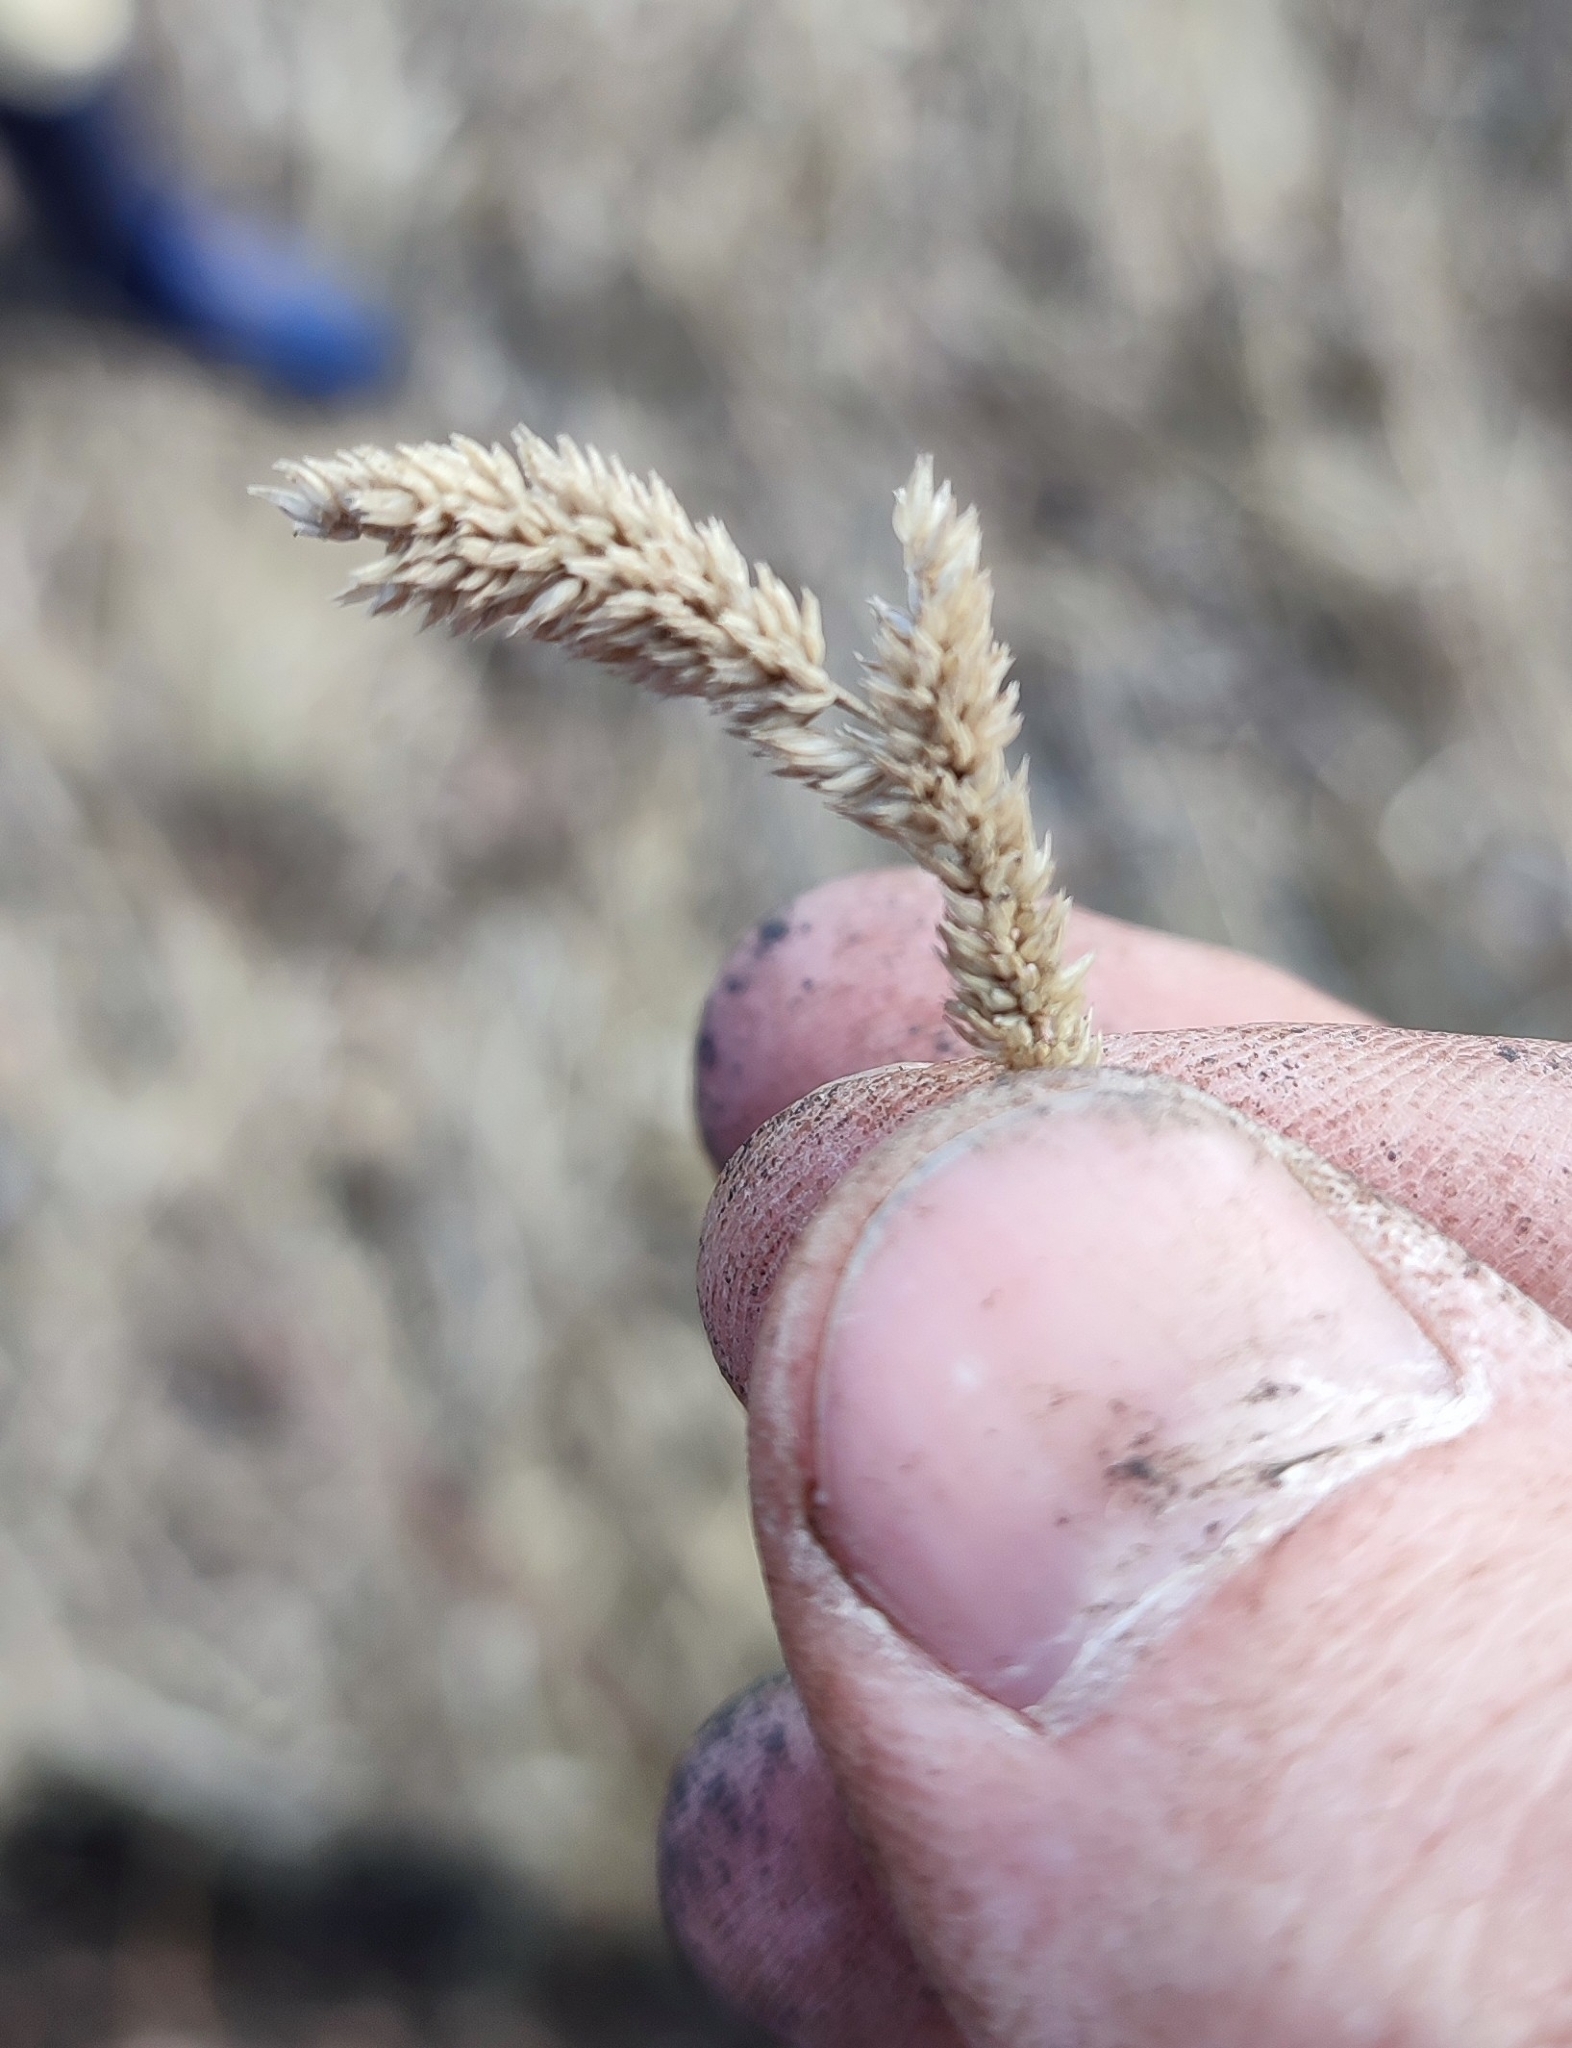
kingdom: Plantae
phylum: Tracheophyta
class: Liliopsida
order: Poales
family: Poaceae
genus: Phleum
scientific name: Phleum phleoides
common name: Purple-stem cat's-tail
